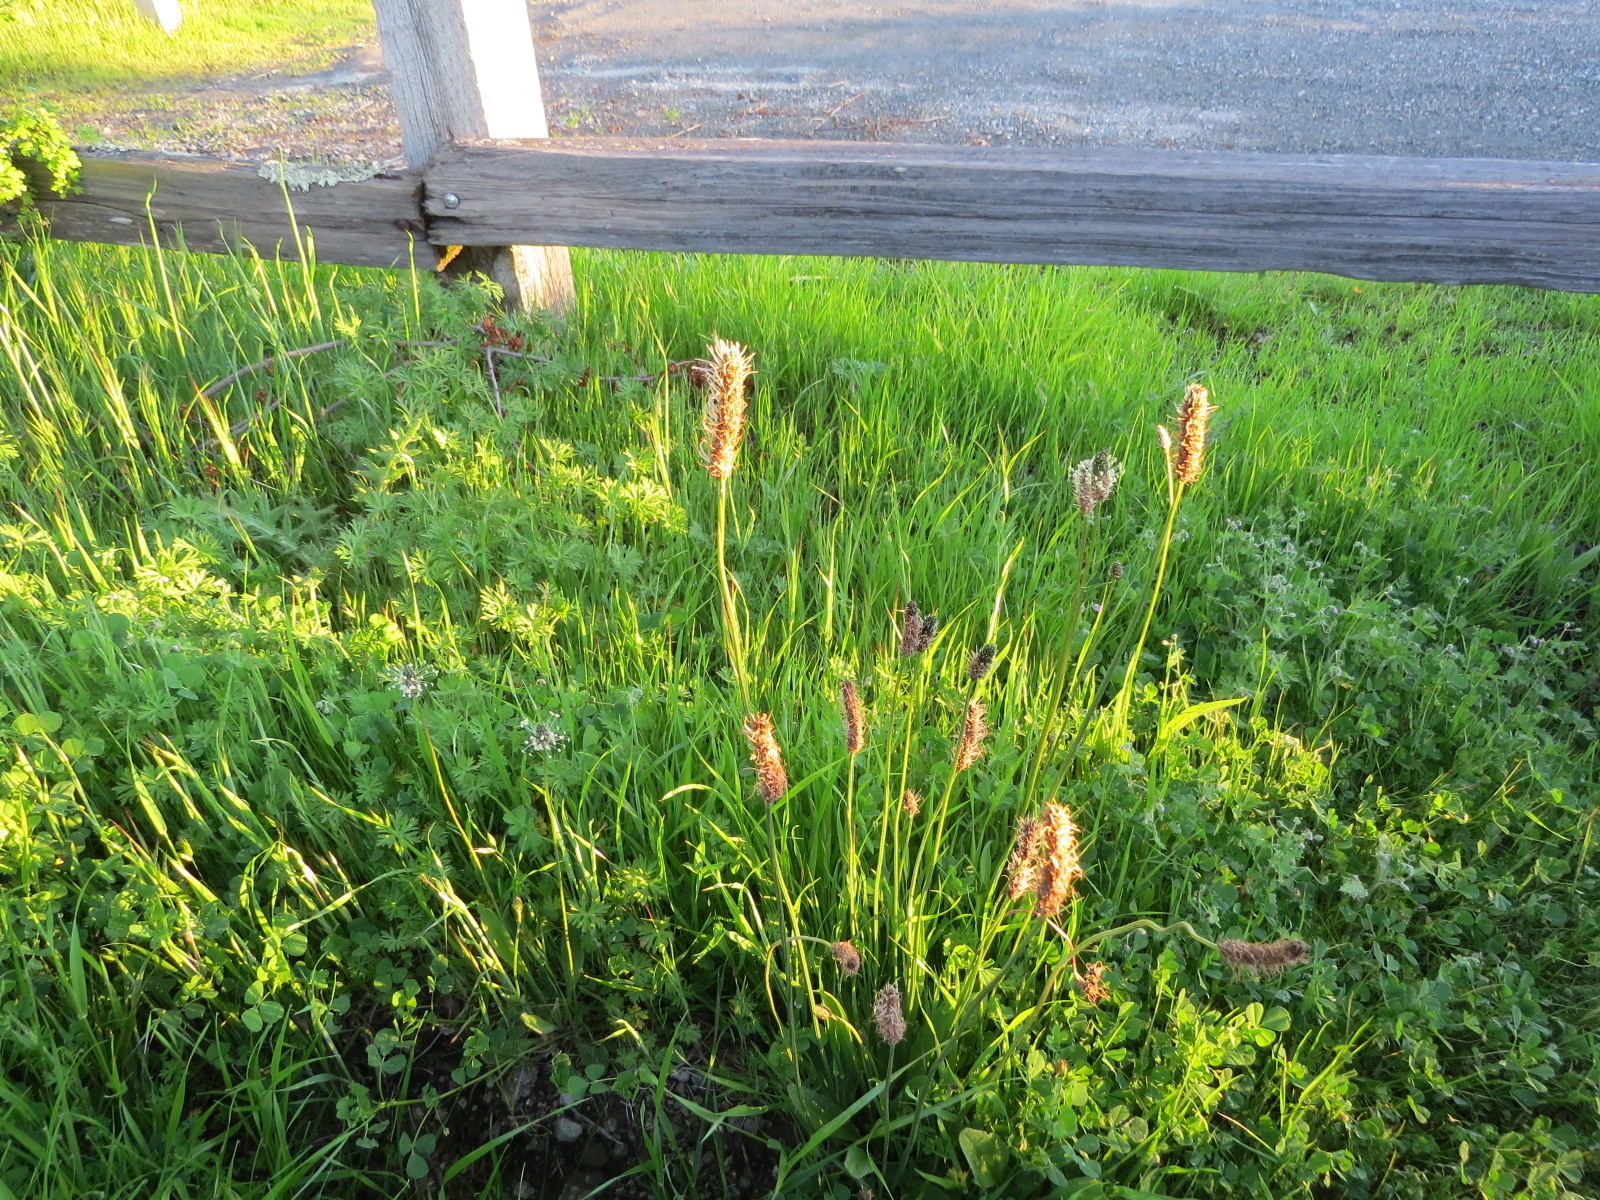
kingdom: Plantae
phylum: Tracheophyta
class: Magnoliopsida
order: Lamiales
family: Plantaginaceae
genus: Plantago
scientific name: Plantago lanceolata
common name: Ribwort plantain
